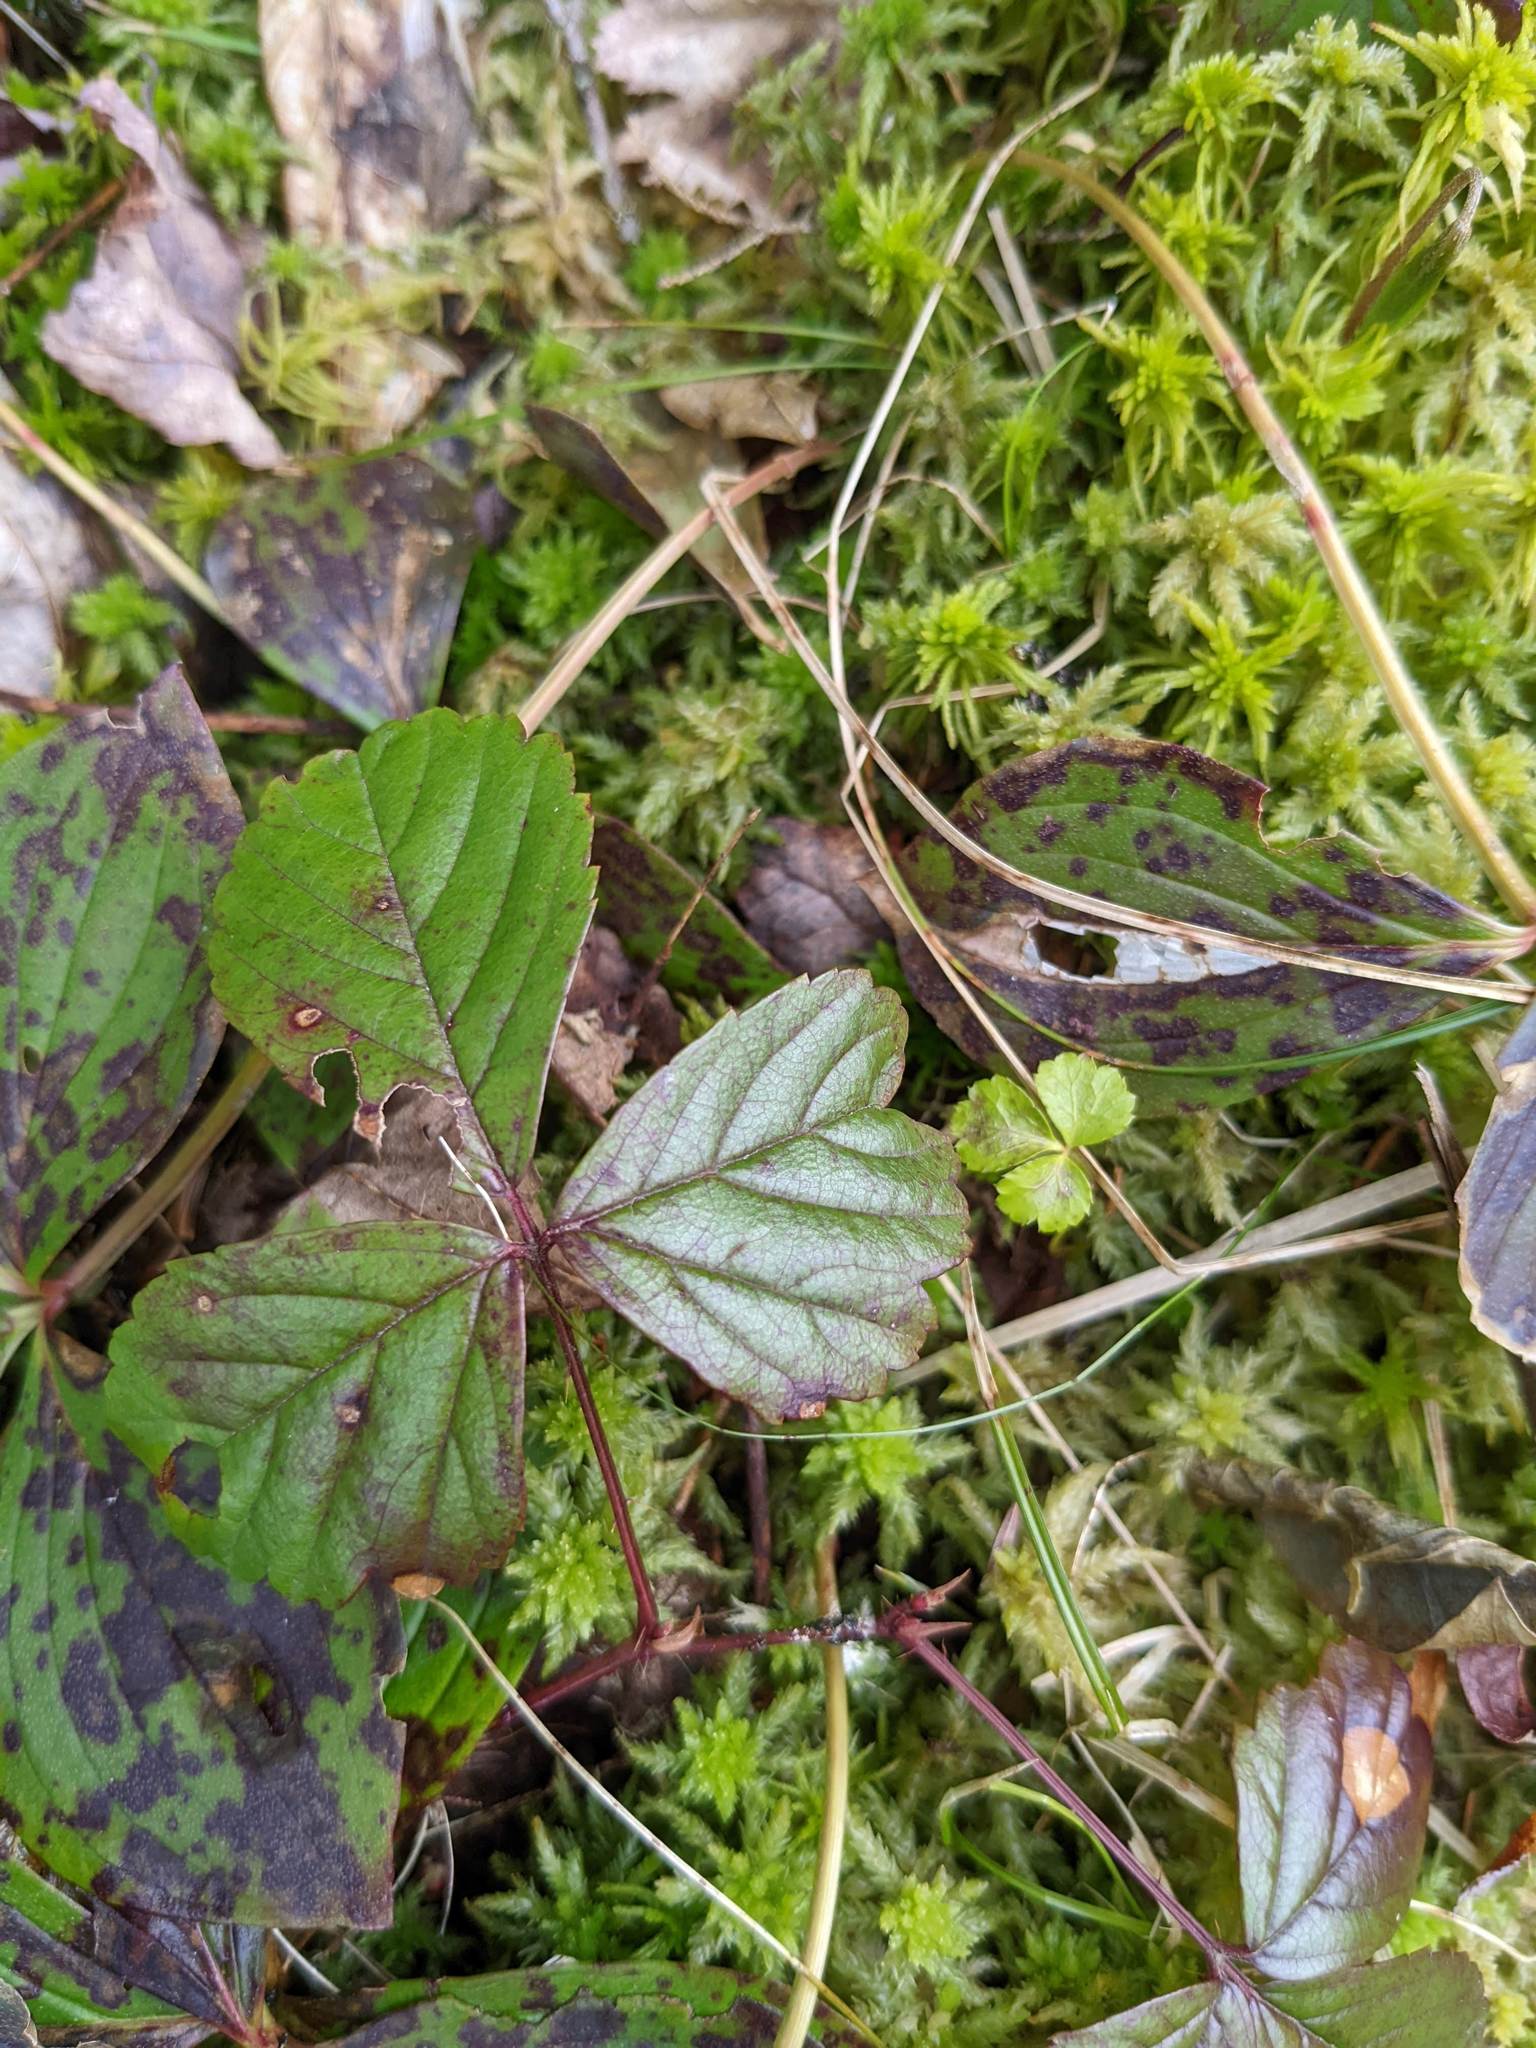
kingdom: Plantae
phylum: Tracheophyta
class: Magnoliopsida
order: Rosales
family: Rosaceae
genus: Rubus
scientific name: Rubus hispidus
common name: Running blackberry
